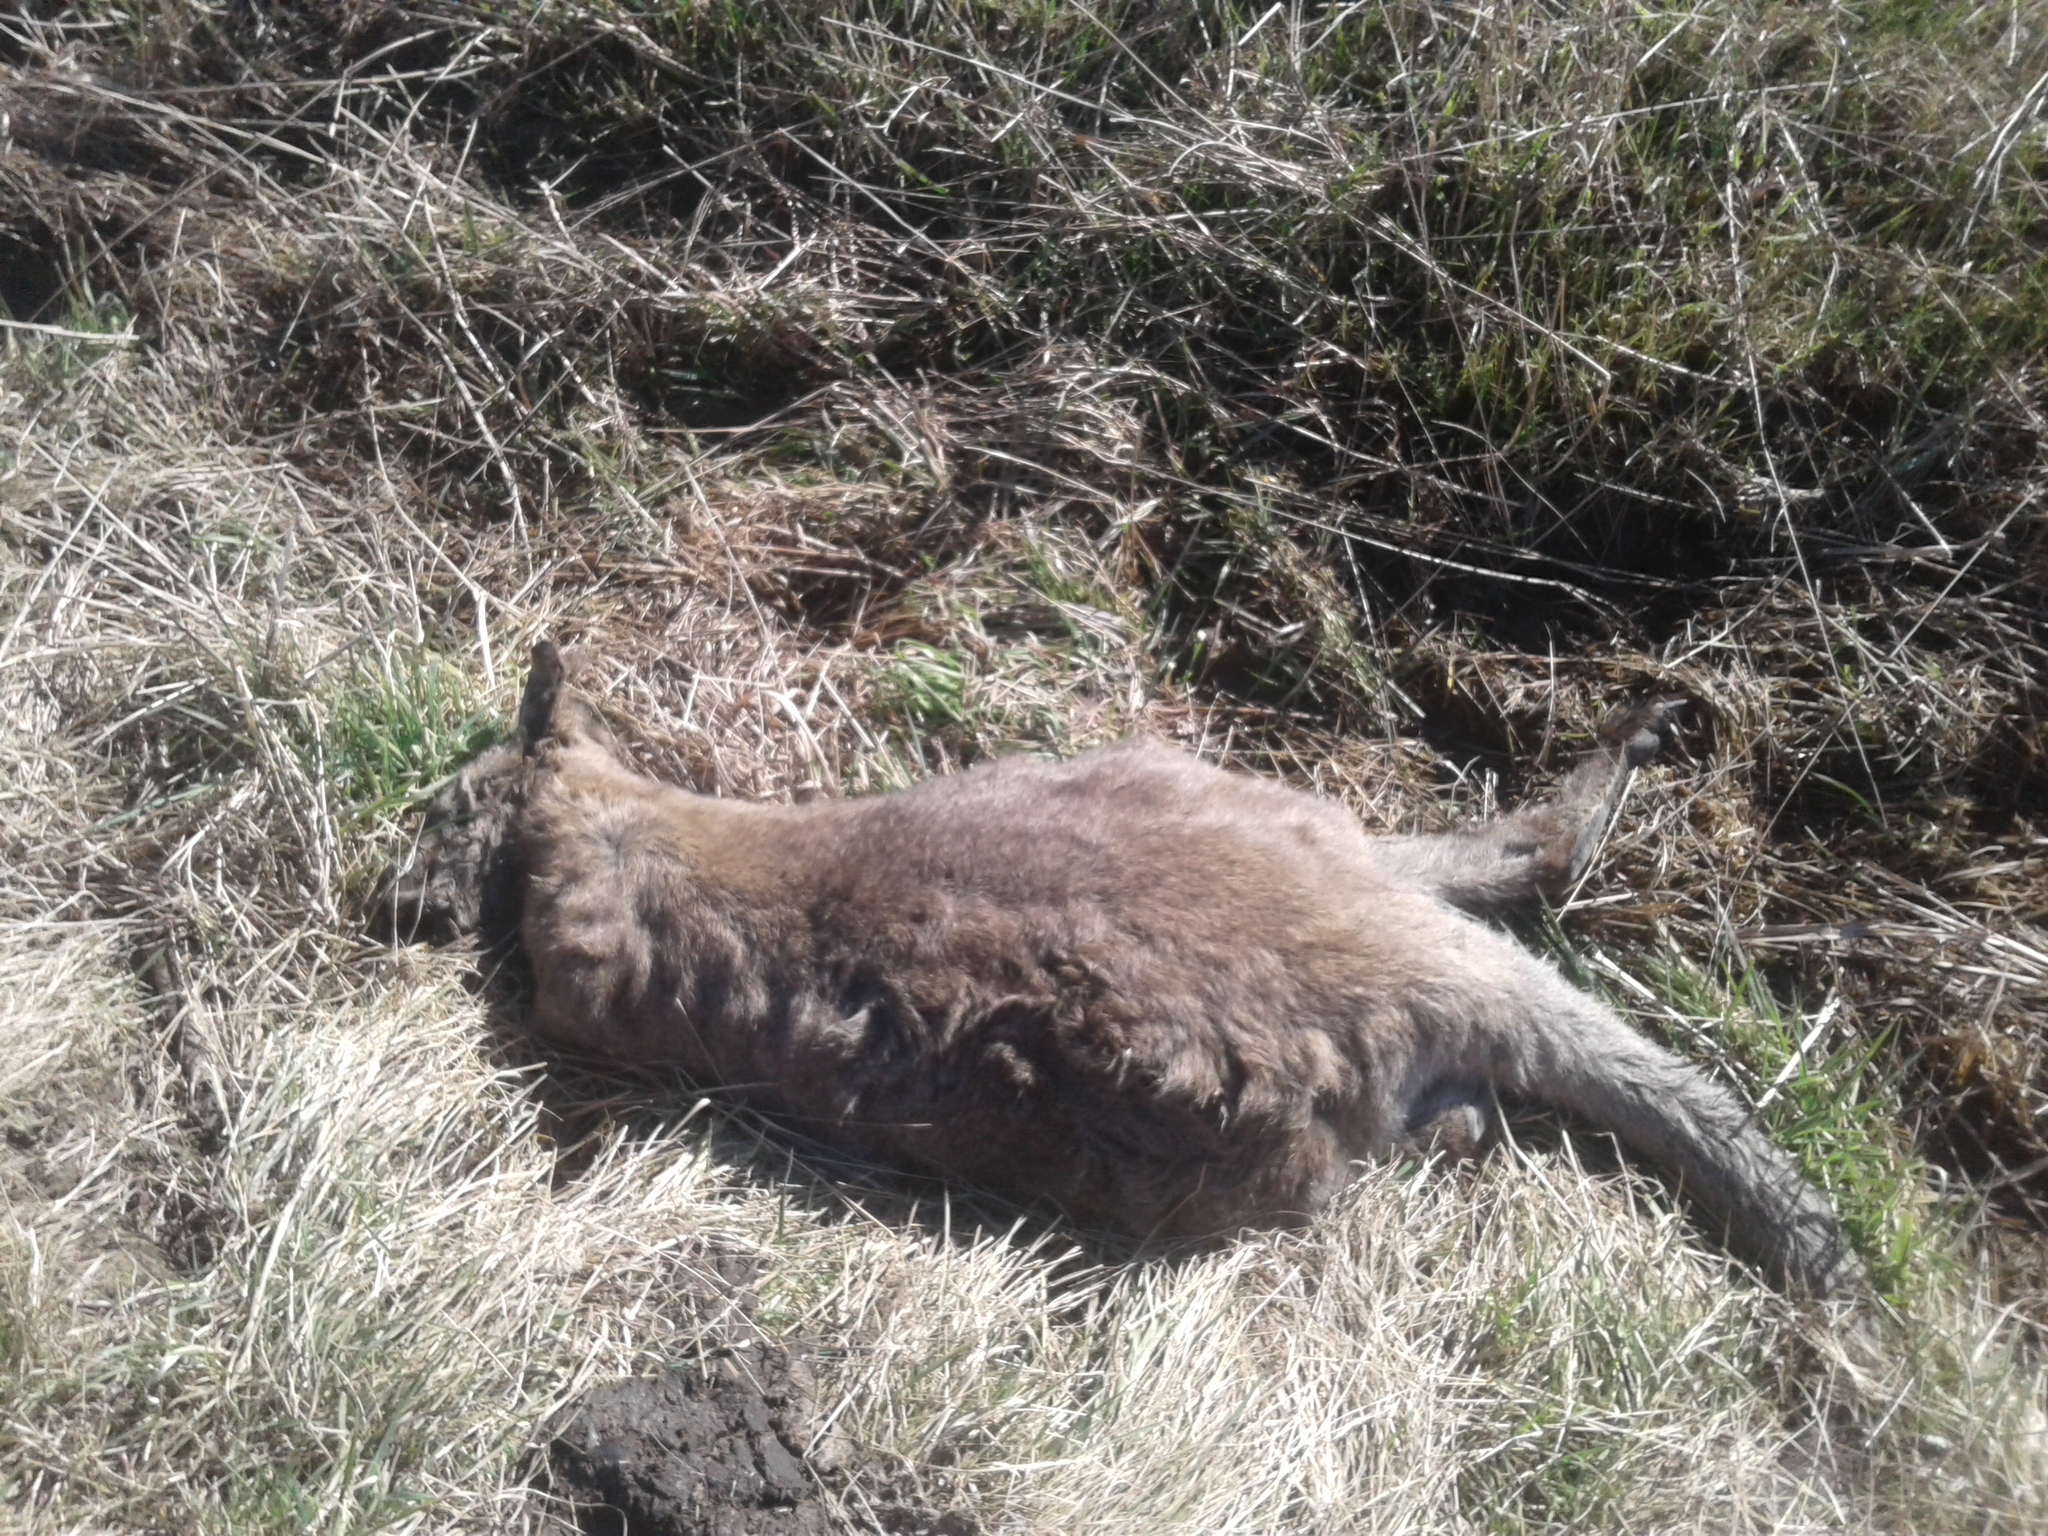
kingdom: Animalia
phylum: Chordata
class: Mammalia
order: Diprotodontia
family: Macropodidae
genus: Notamacropus
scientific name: Notamacropus rufogriseus
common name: Red-necked wallaby
